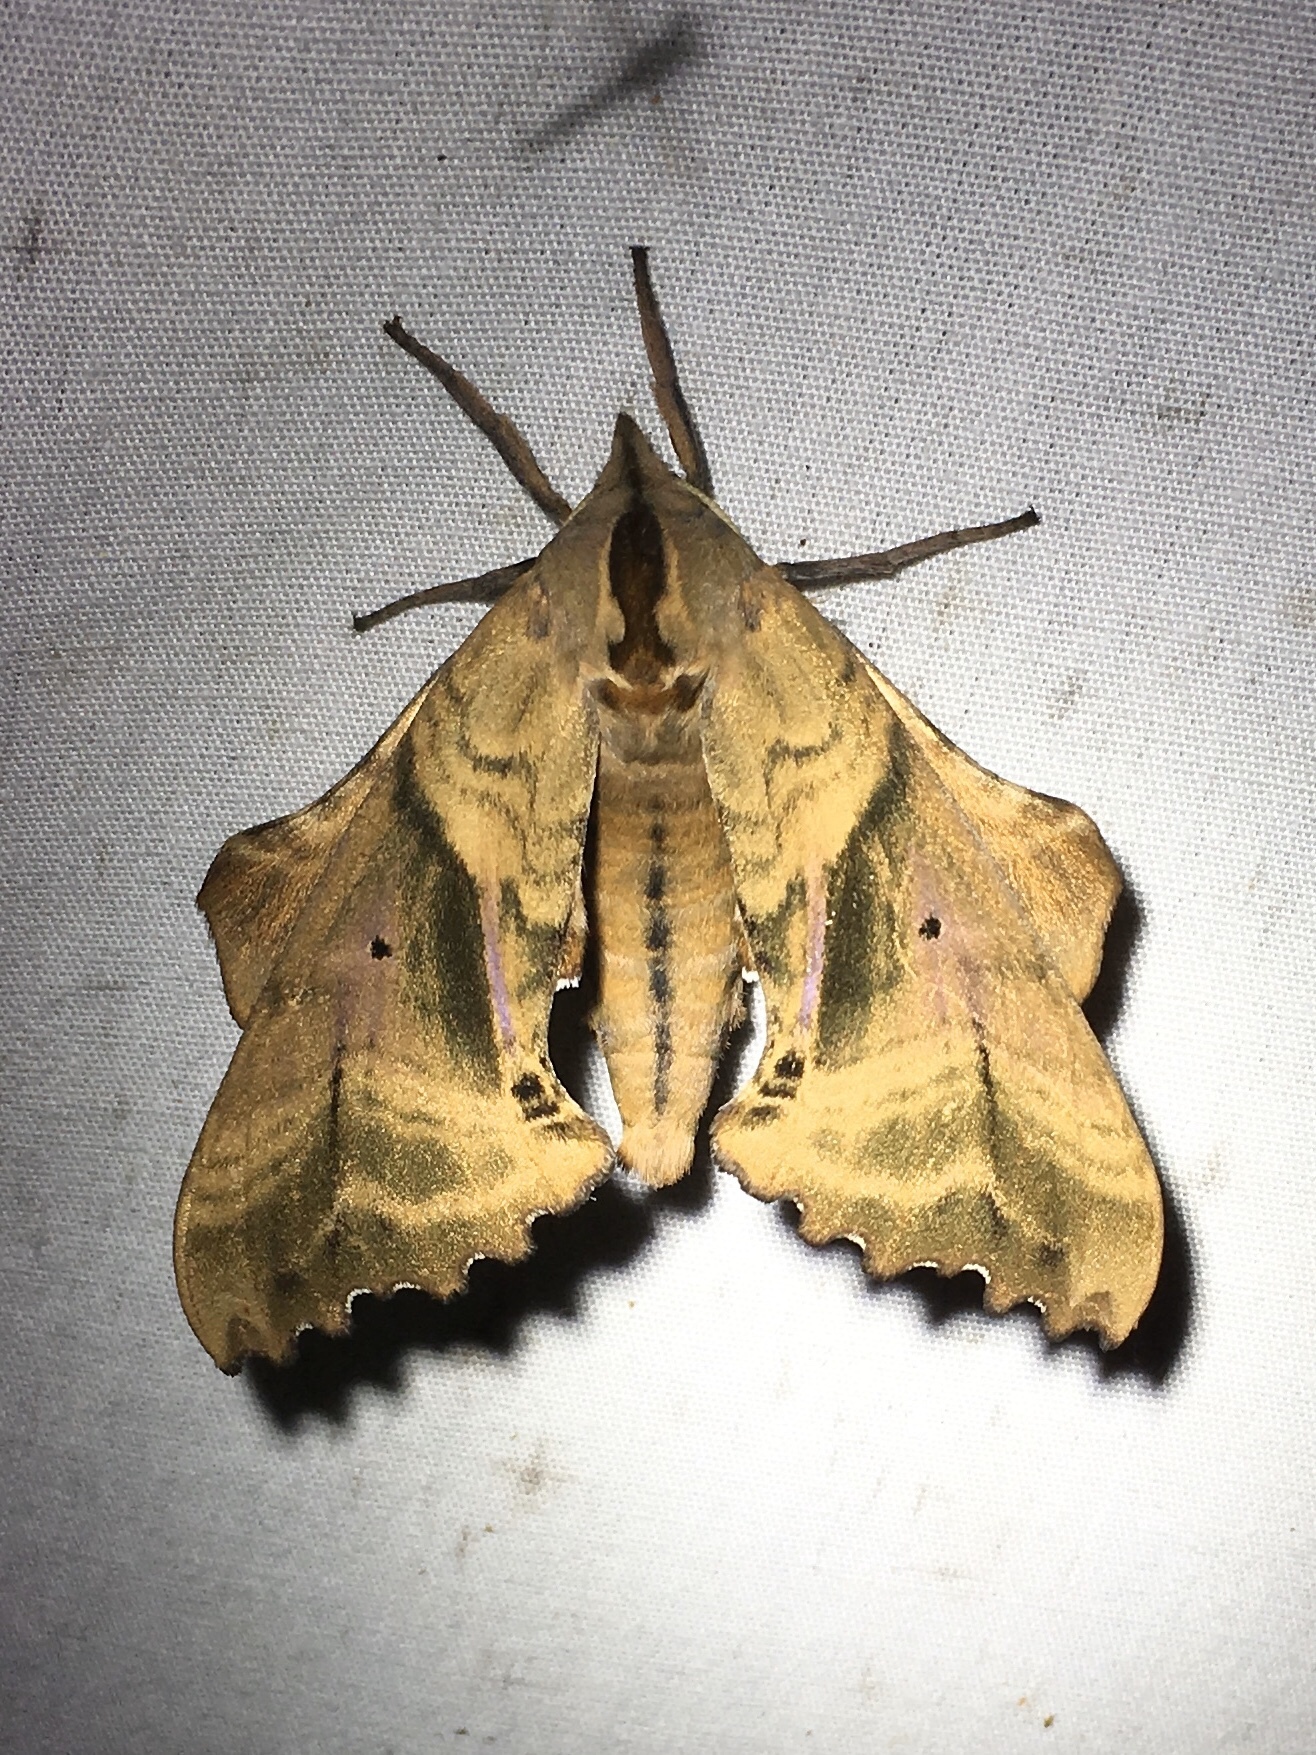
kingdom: Animalia
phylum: Arthropoda
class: Insecta
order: Lepidoptera
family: Sphingidae
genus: Paonias
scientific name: Paonias excaecata
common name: Blind-eyed sphinx
